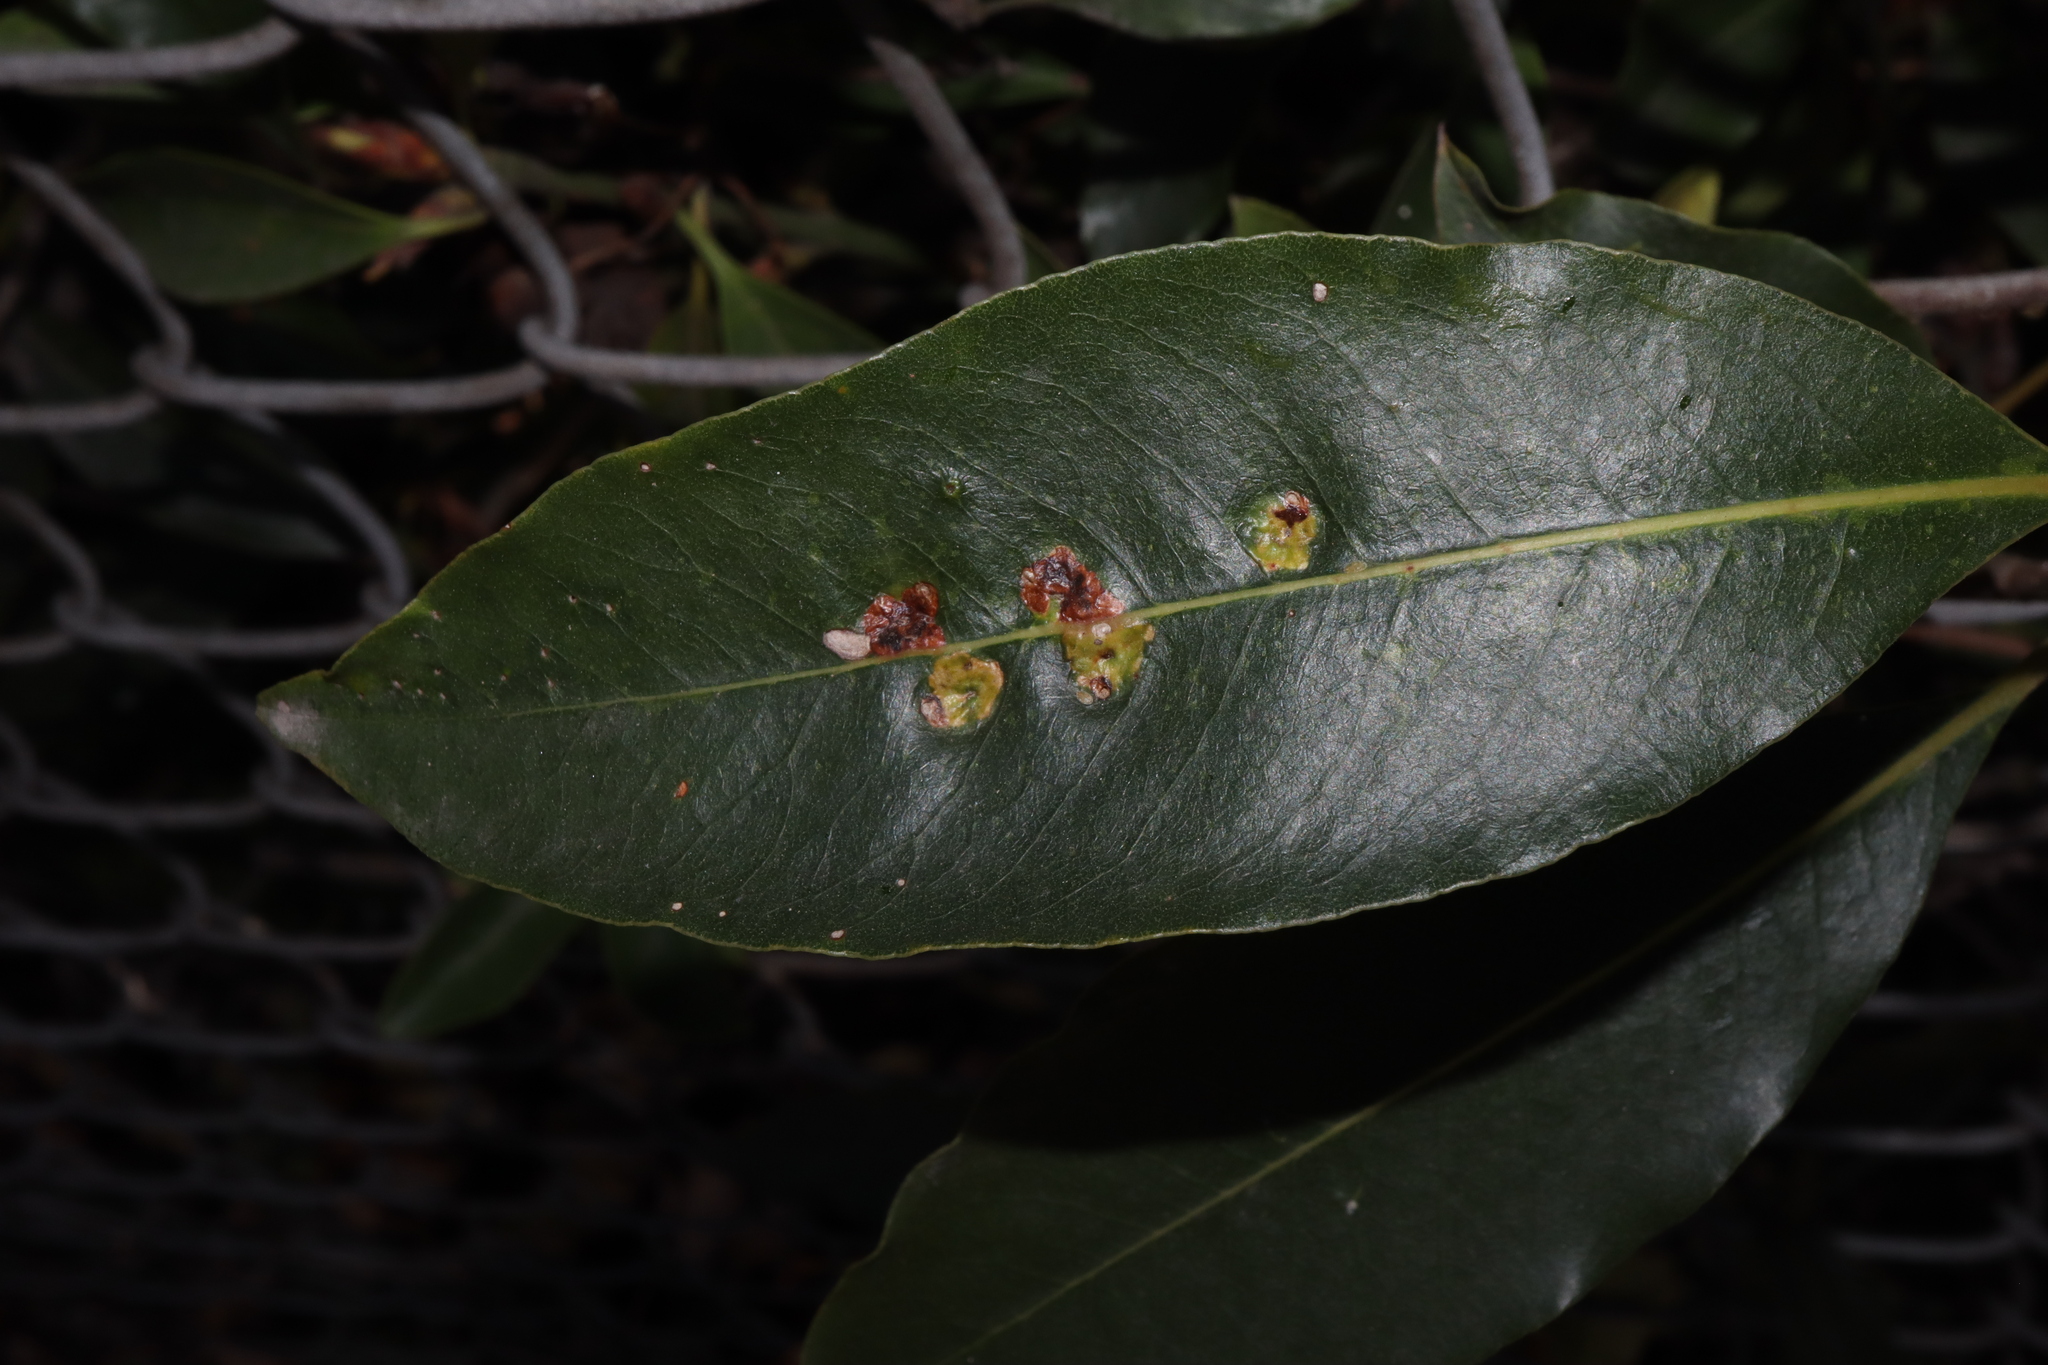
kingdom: Animalia
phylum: Arthropoda
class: Insecta
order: Diptera
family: Agromyzidae
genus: Phytoliriomyza
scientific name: Phytoliriomyza pittosporophylli
